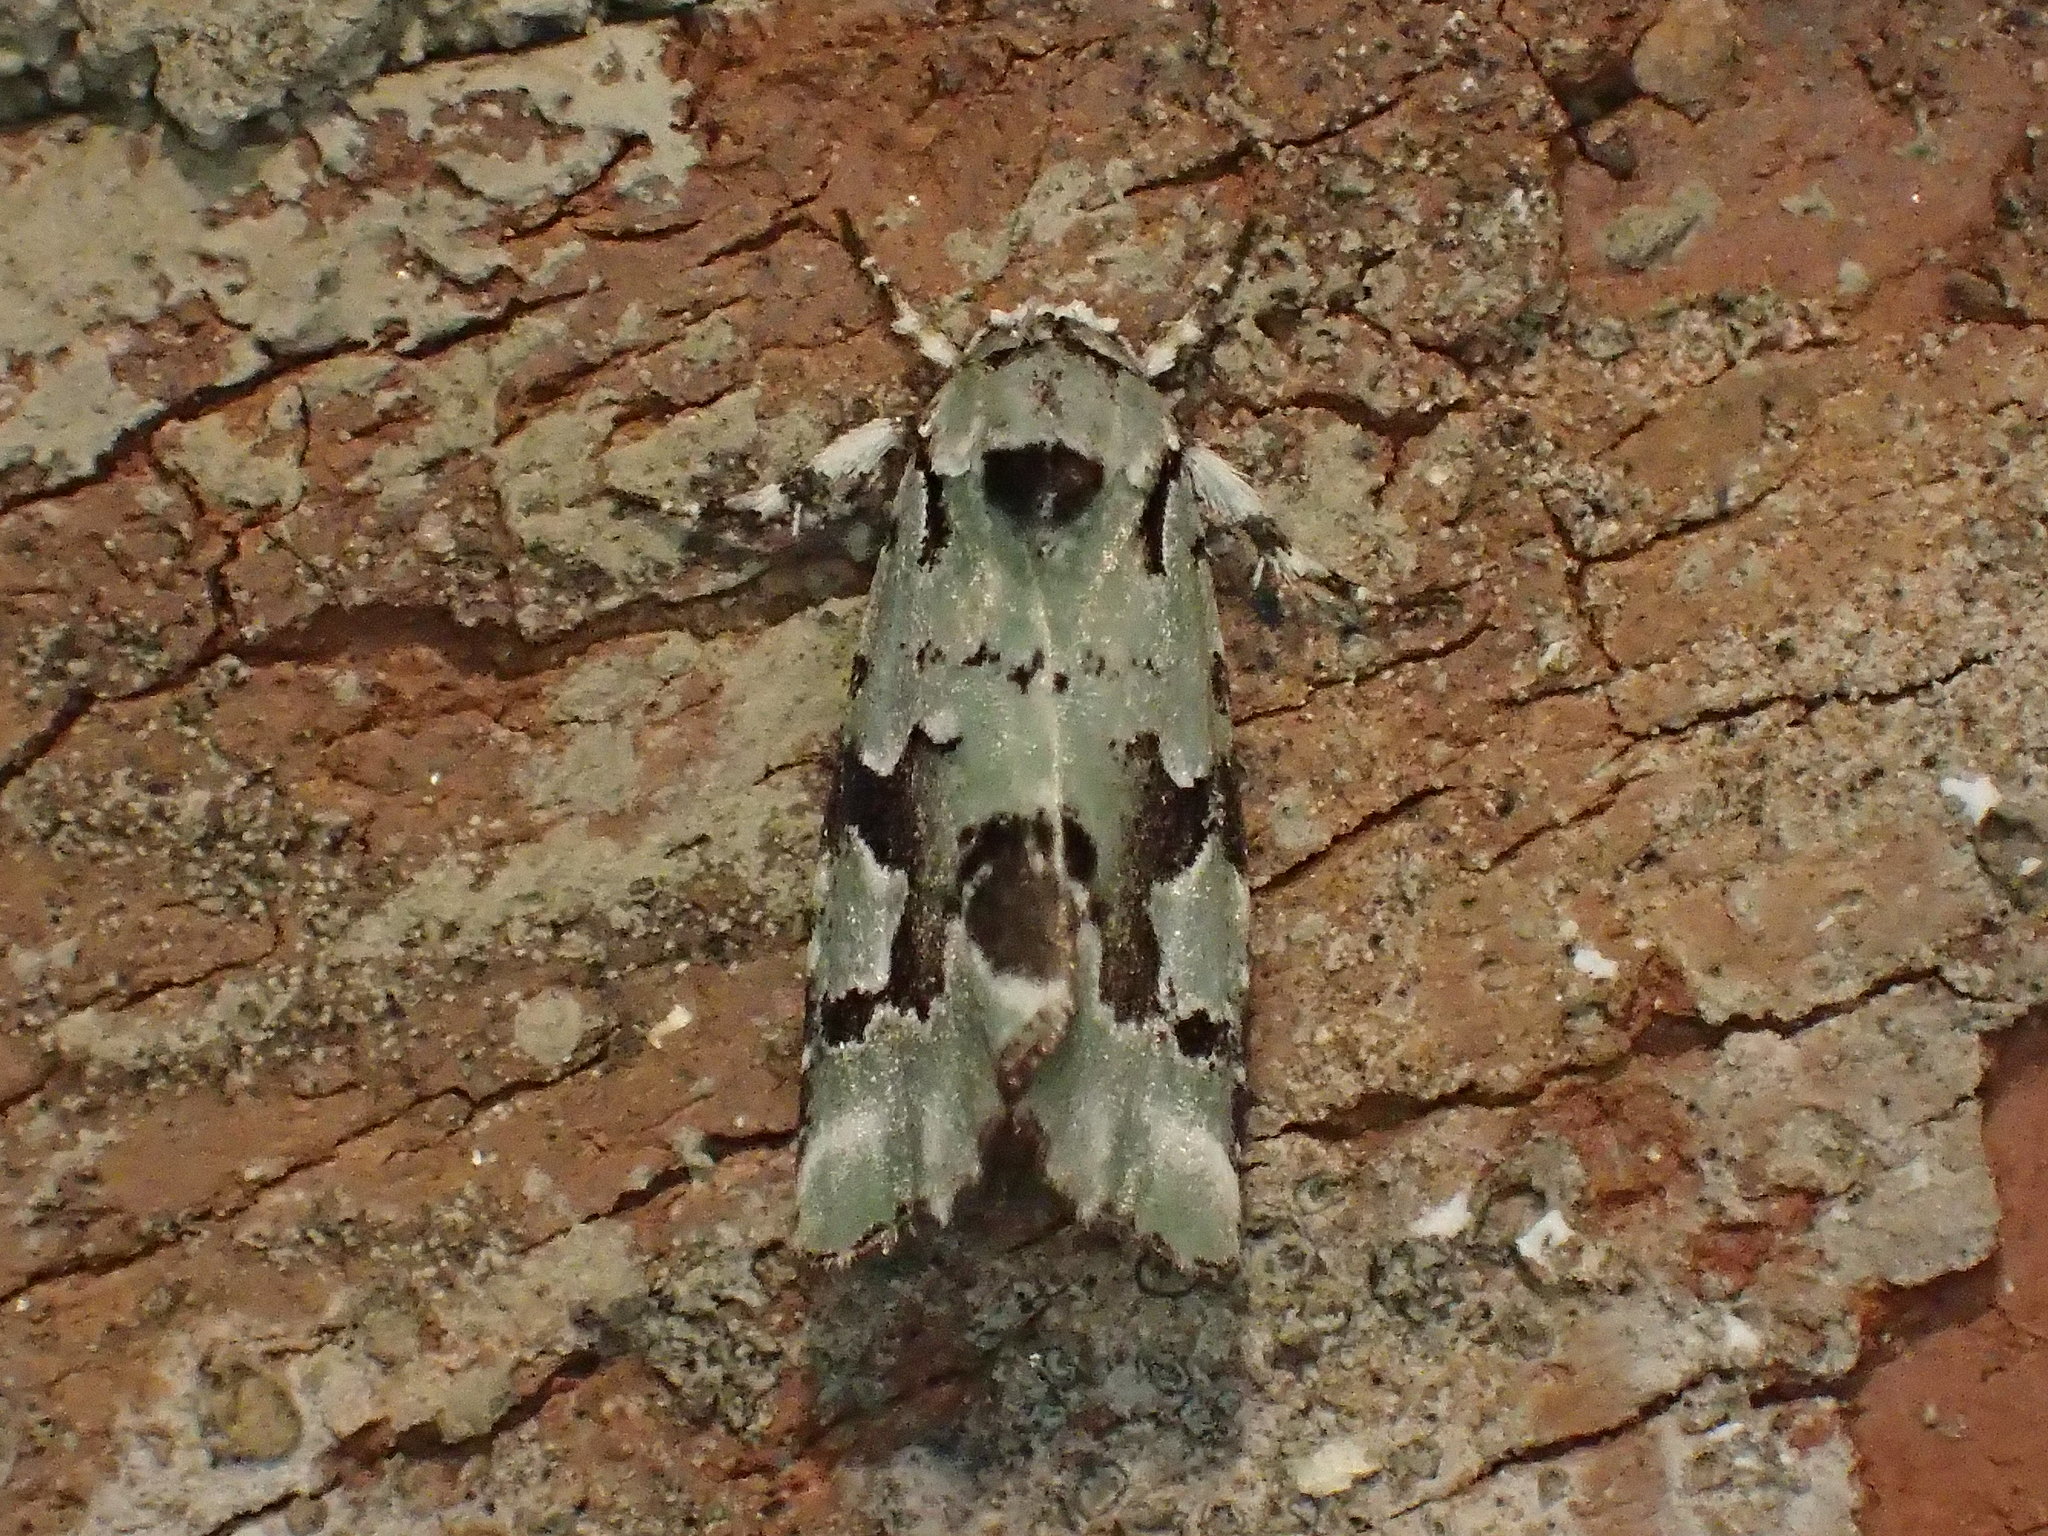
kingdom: Animalia
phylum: Arthropoda
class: Insecta
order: Lepidoptera
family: Noctuidae
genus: Emarginea
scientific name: Emarginea percara
